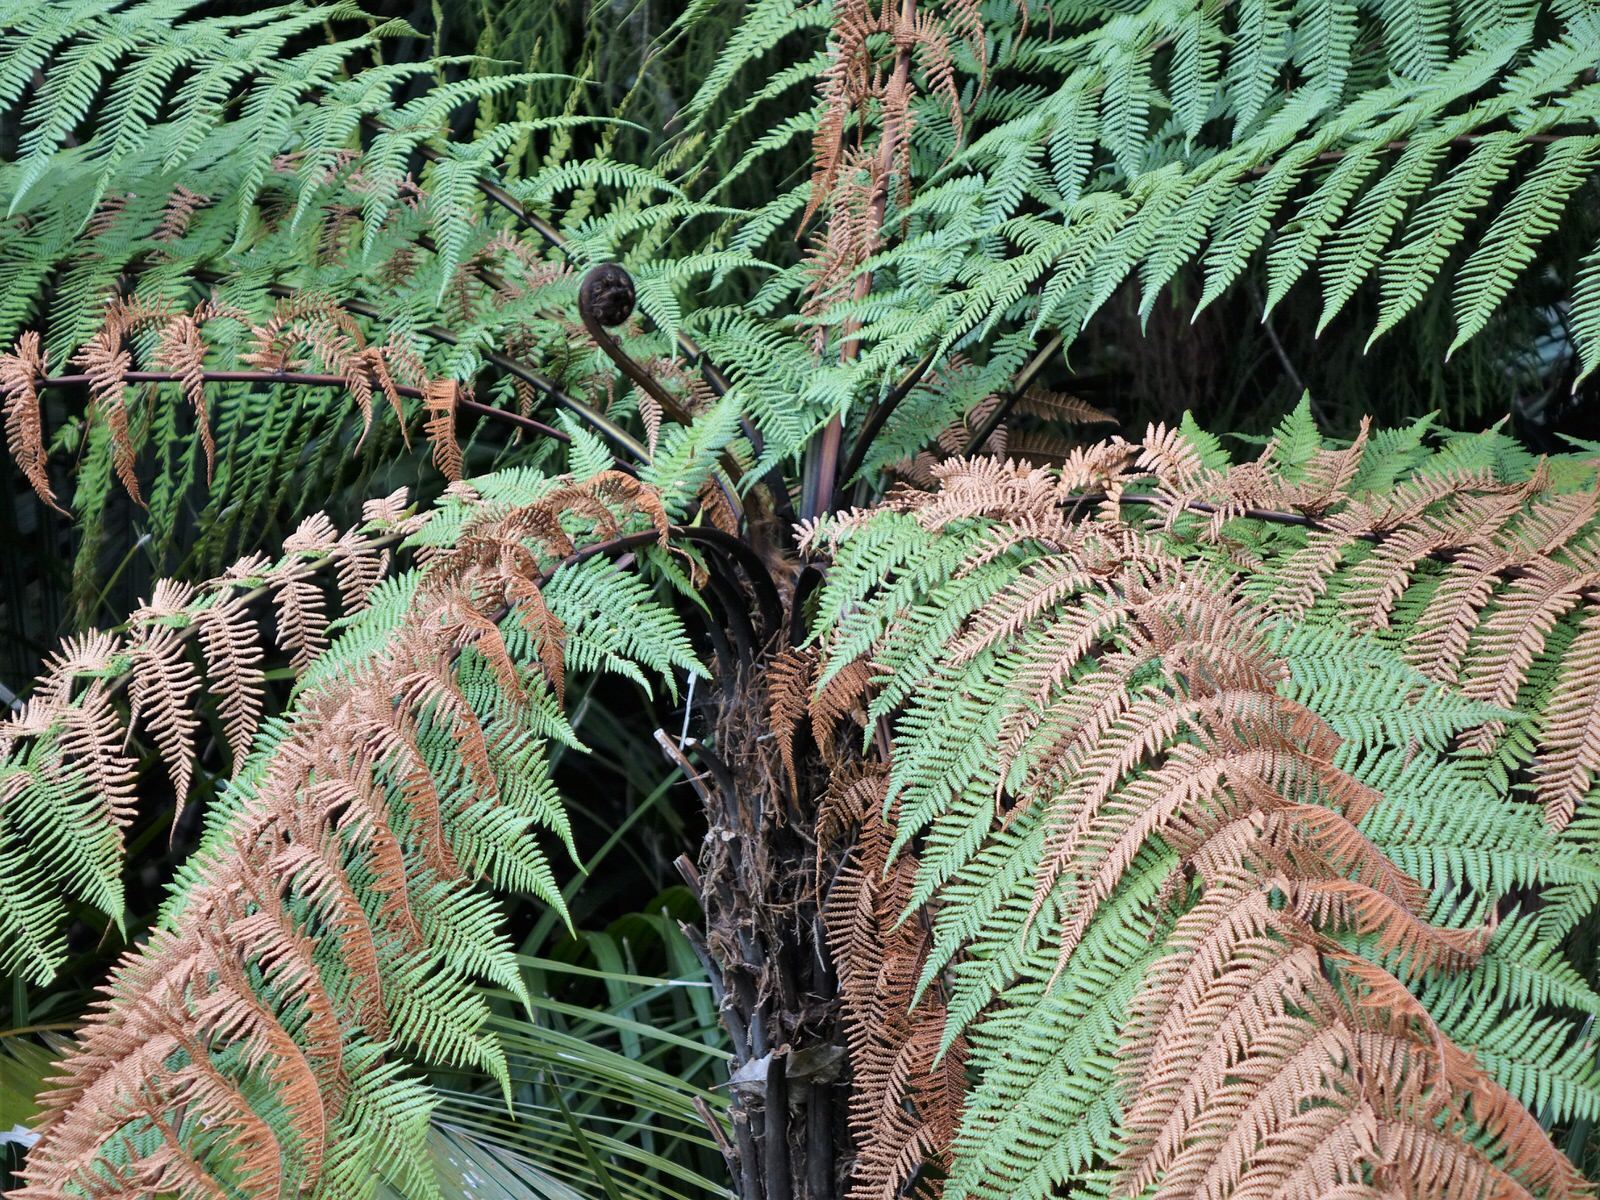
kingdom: Plantae
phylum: Tracheophyta
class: Polypodiopsida
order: Cyatheales
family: Dicksoniaceae
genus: Dicksonia
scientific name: Dicksonia squarrosa
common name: Hard treefern
